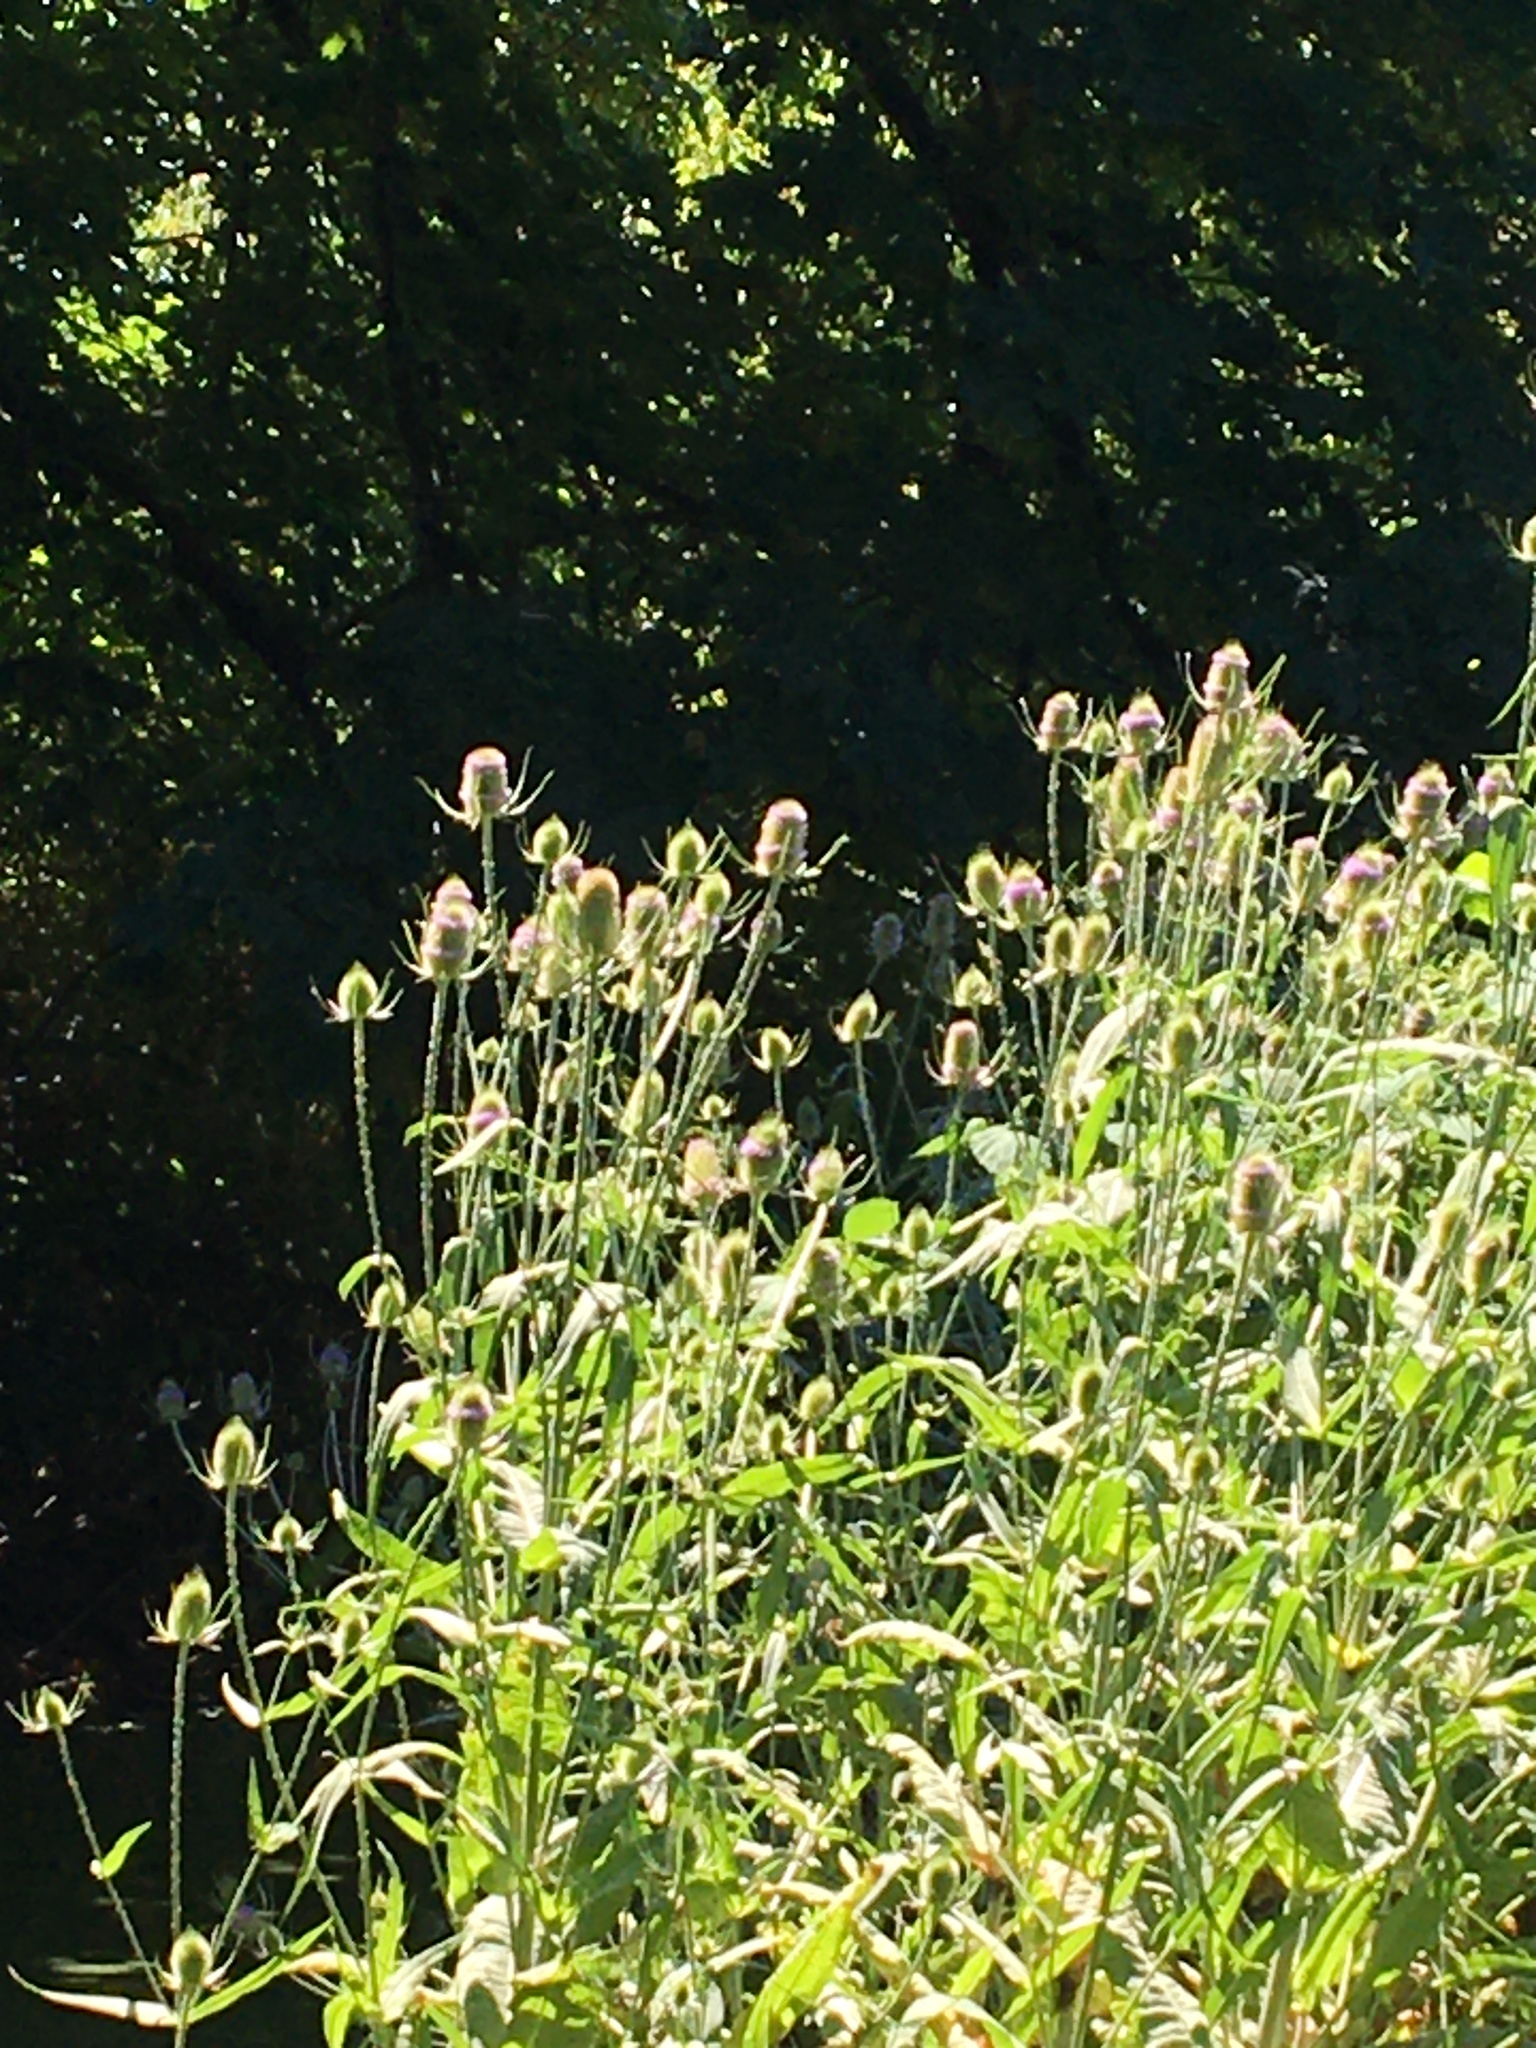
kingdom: Plantae
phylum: Tracheophyta
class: Magnoliopsida
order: Dipsacales
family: Caprifoliaceae
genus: Dipsacus
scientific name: Dipsacus fullonum
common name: Teasel
